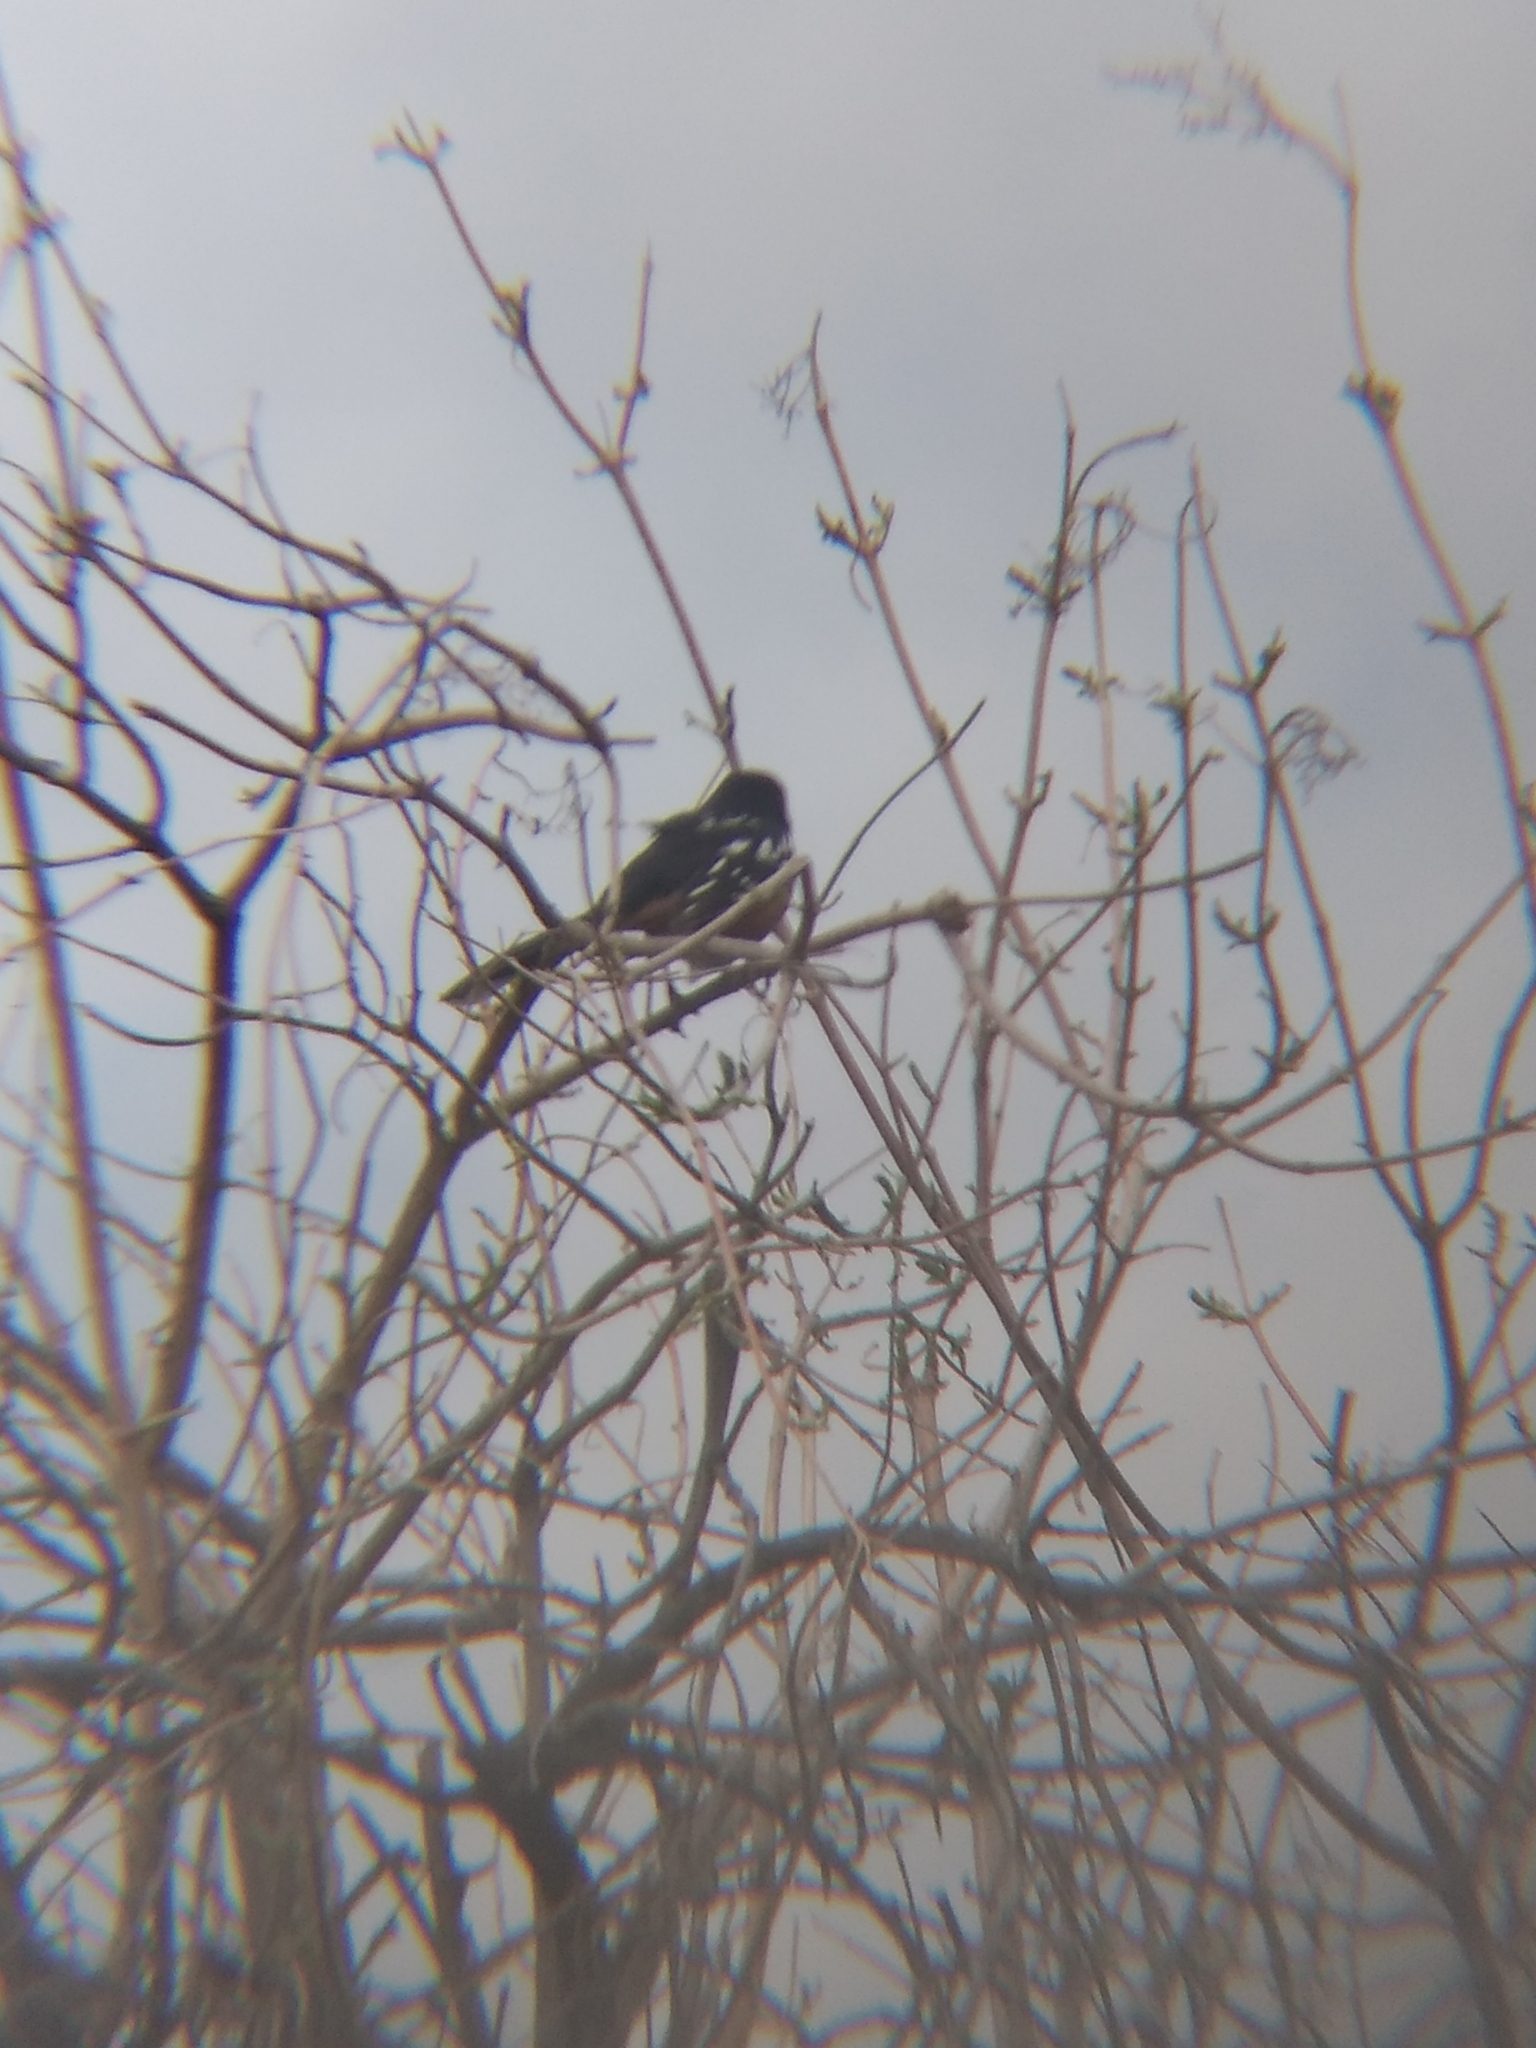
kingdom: Animalia
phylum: Chordata
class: Aves
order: Passeriformes
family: Passerellidae
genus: Pipilo
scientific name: Pipilo maculatus
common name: Spotted towhee
